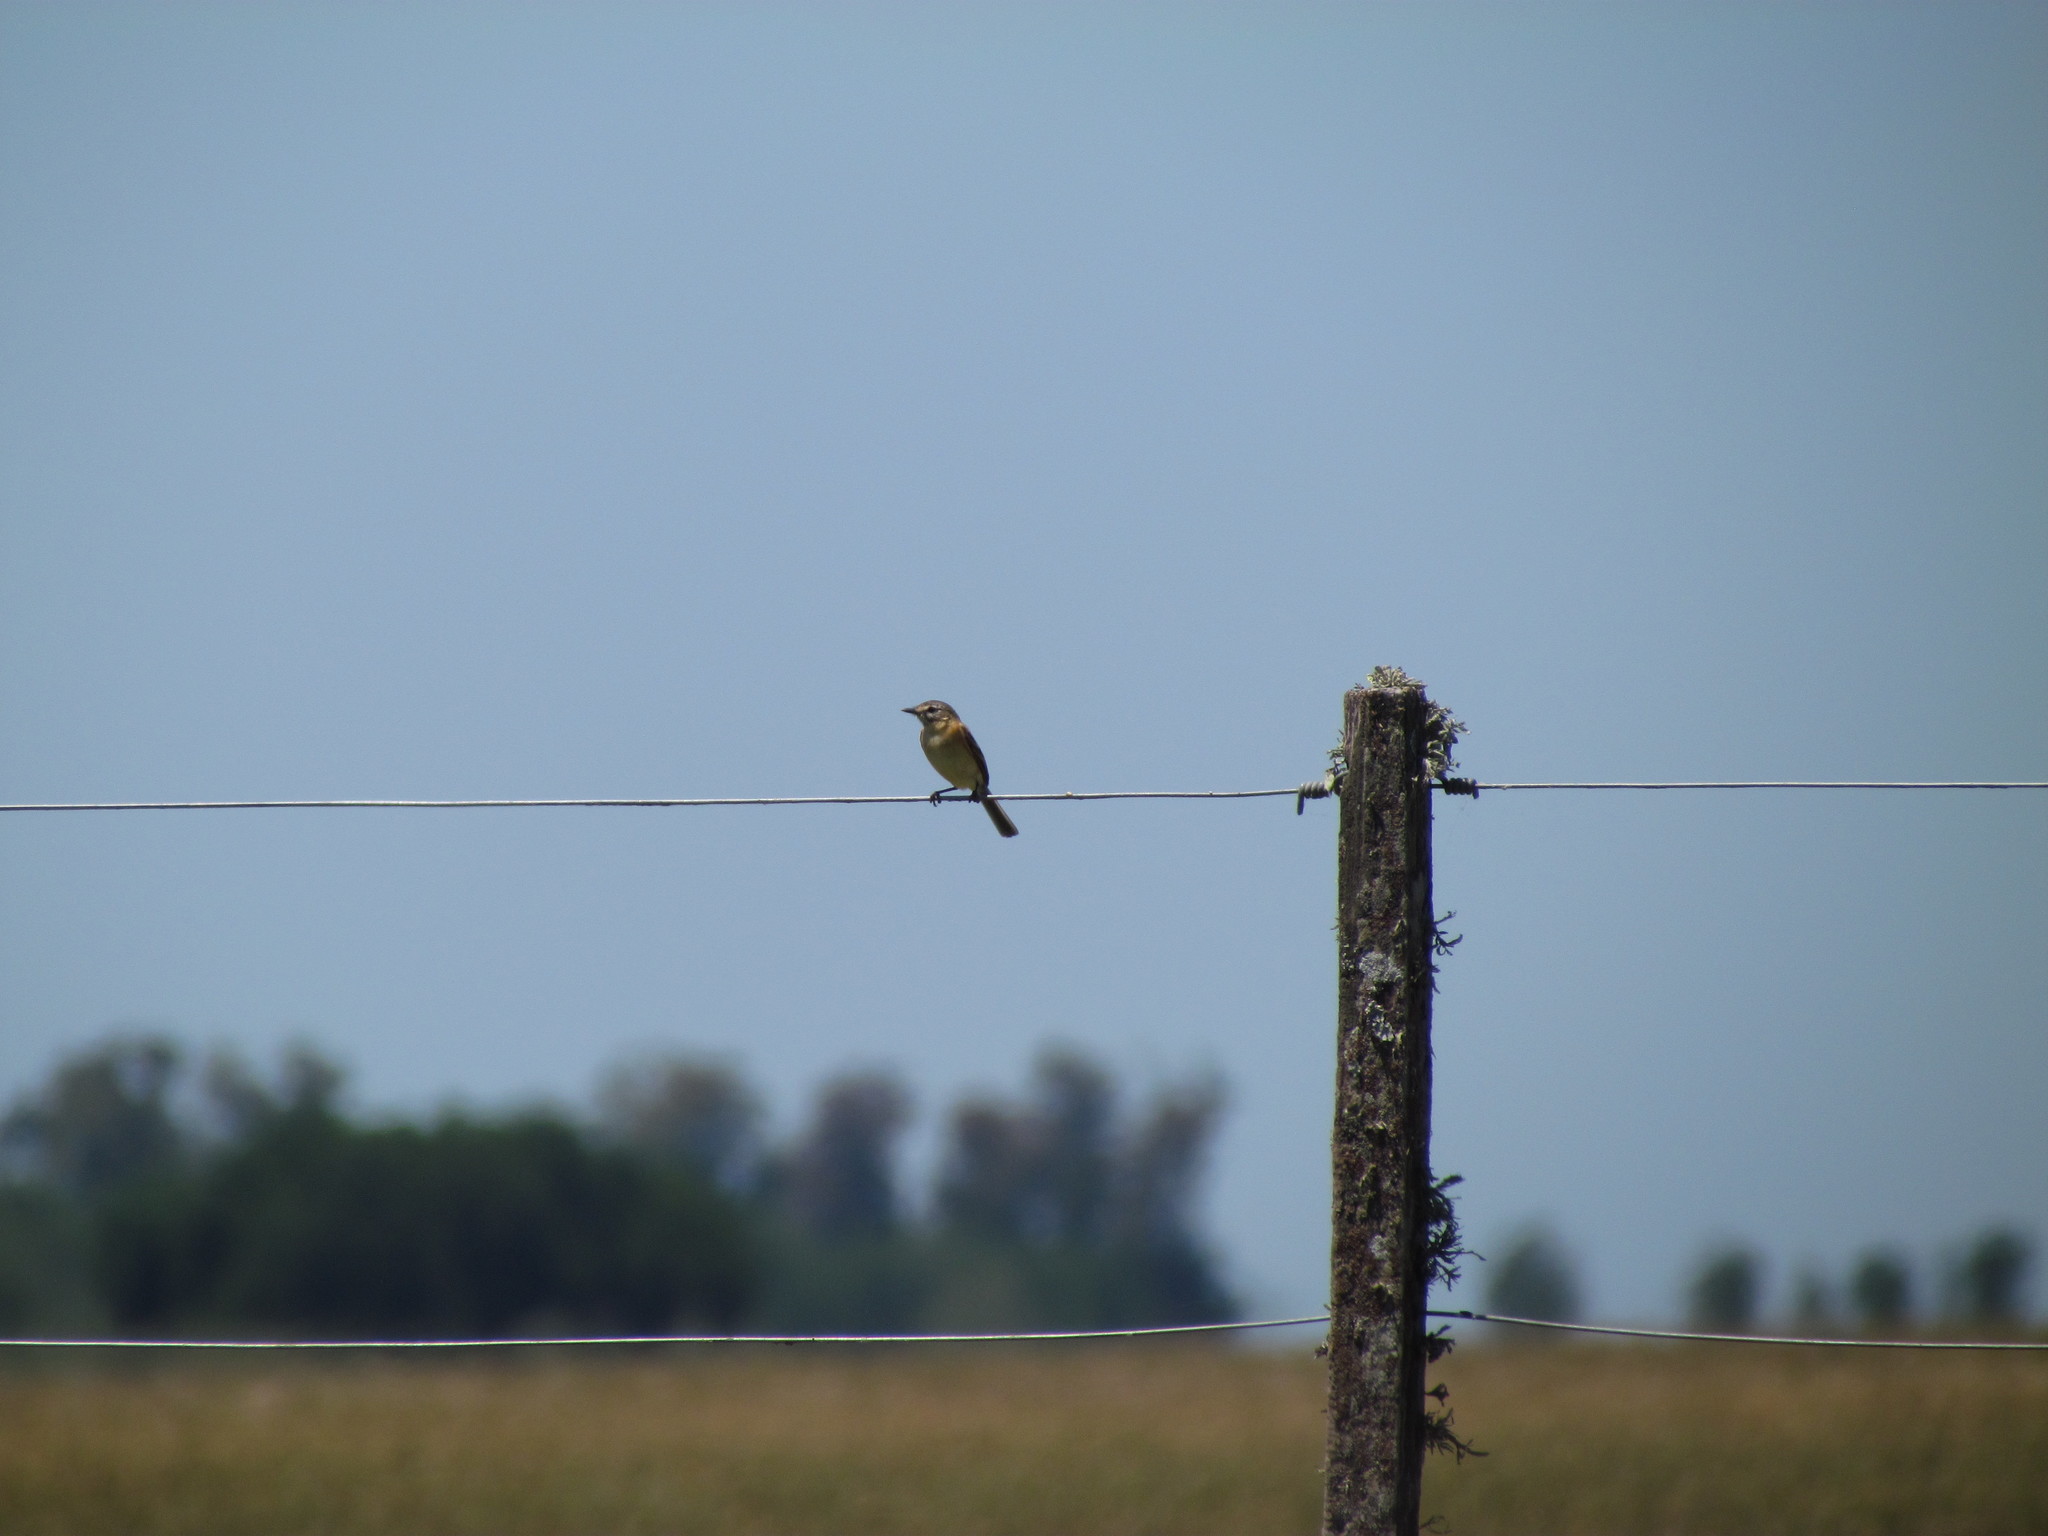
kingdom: Animalia
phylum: Chordata
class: Aves
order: Passeriformes
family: Tyrannidae
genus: Polystictus
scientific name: Polystictus pectoralis
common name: Bearded tachuri
